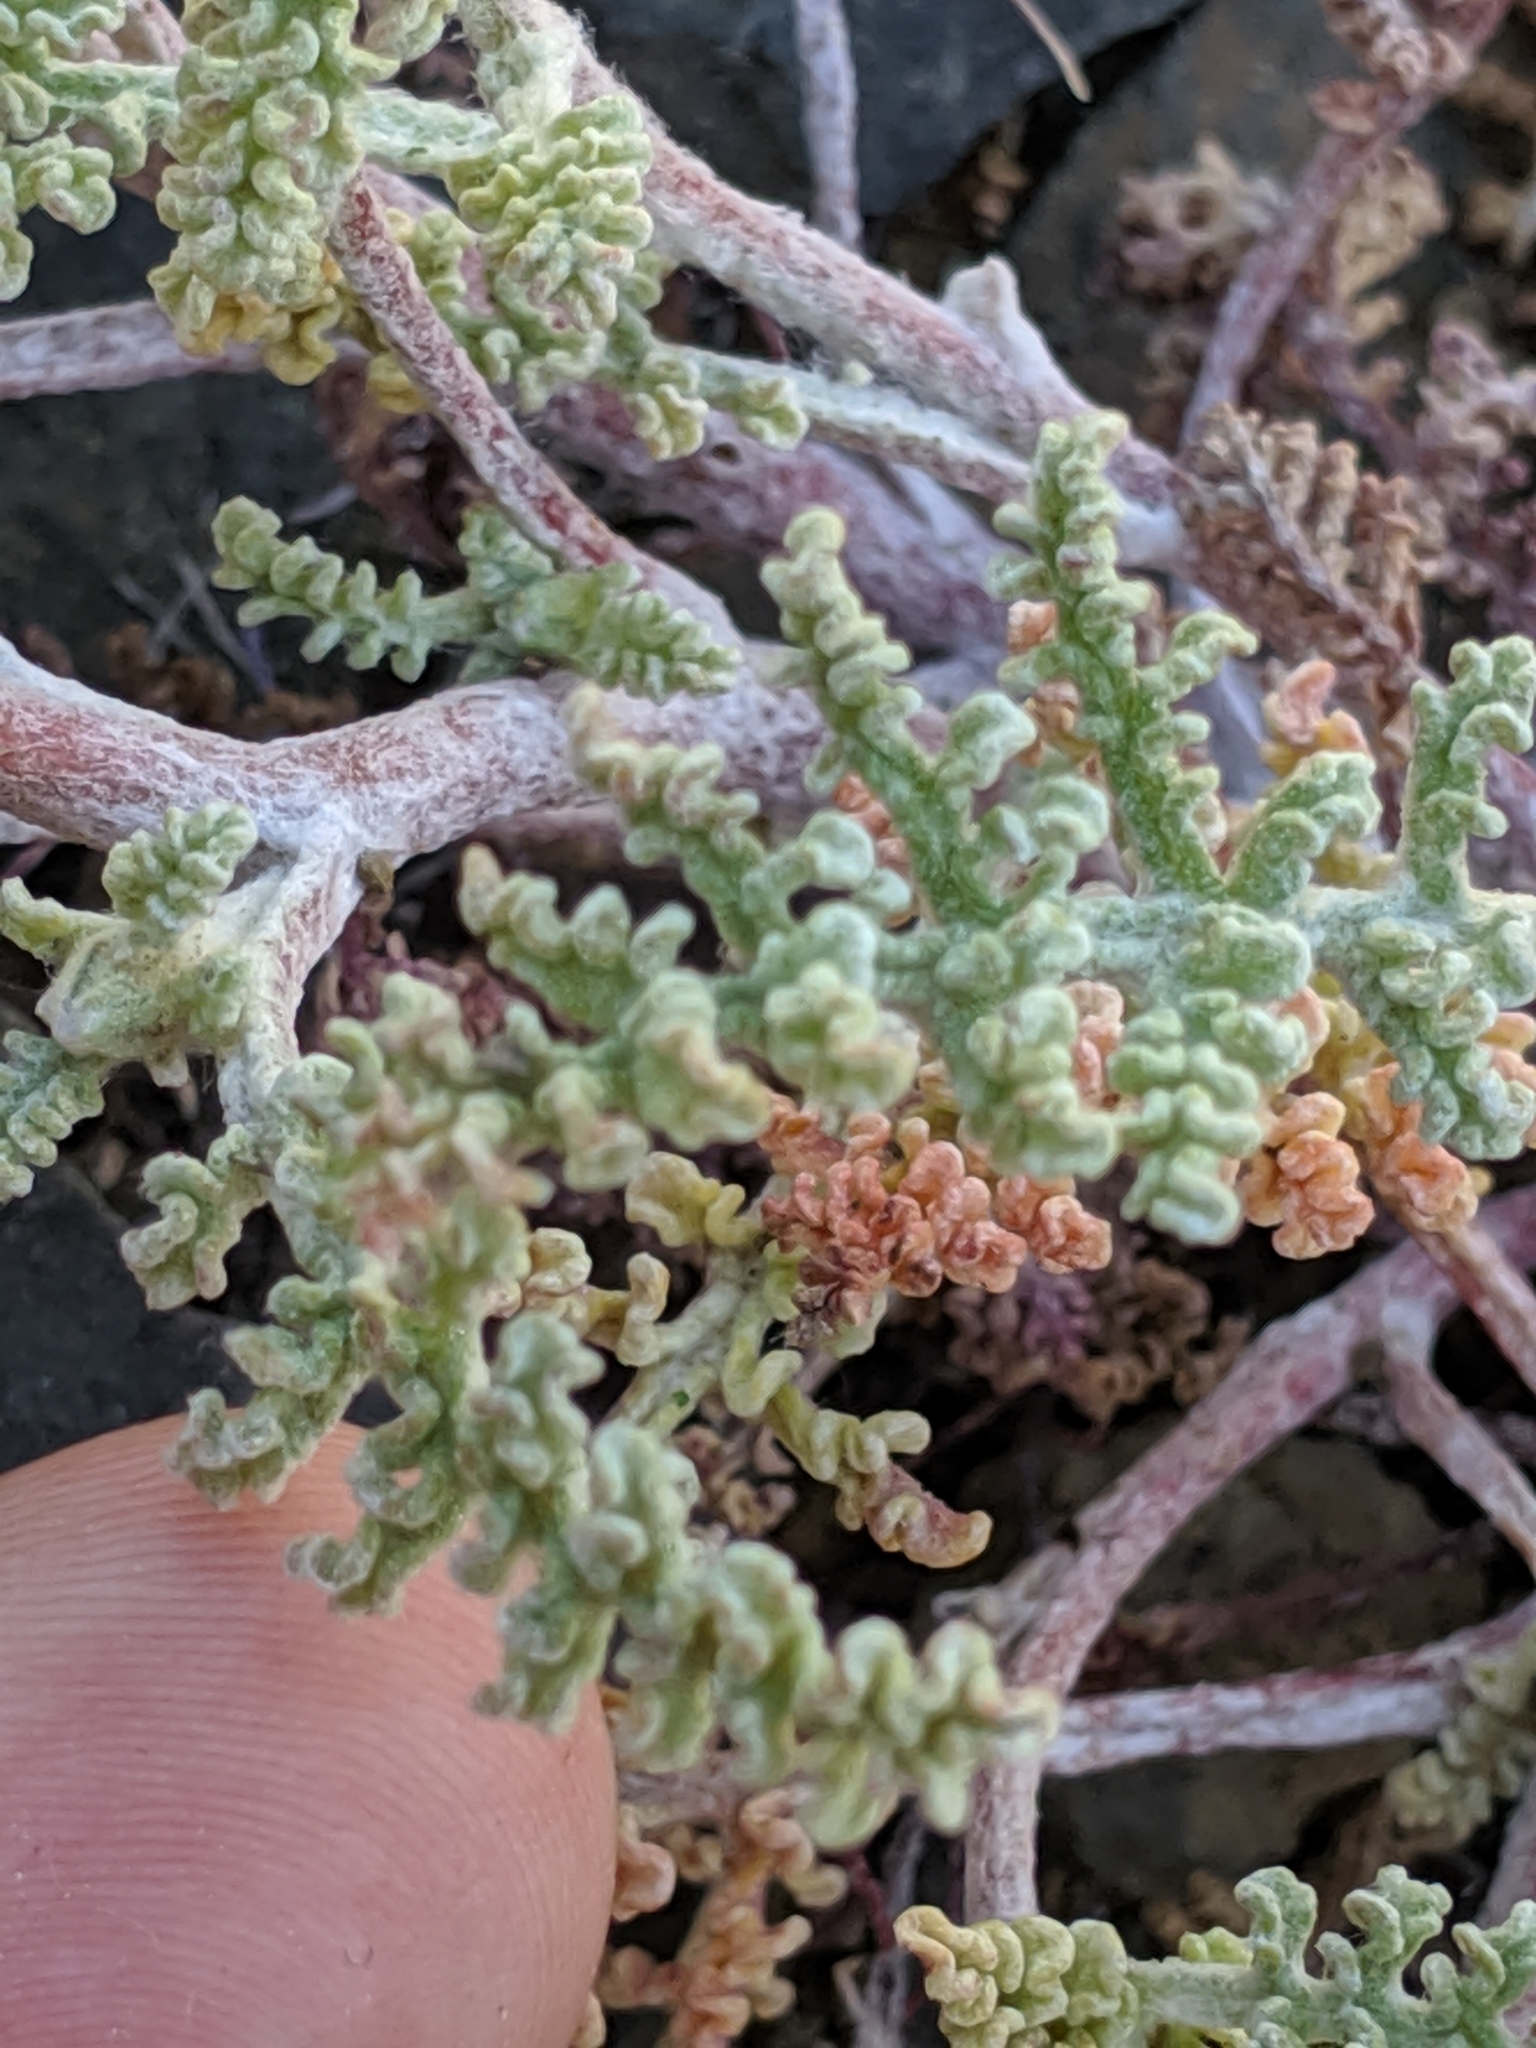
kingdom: Plantae
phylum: Tracheophyta
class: Magnoliopsida
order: Asterales
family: Asteraceae
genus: Chaenactis
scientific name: Chaenactis douglasii
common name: Hoary pincushion
